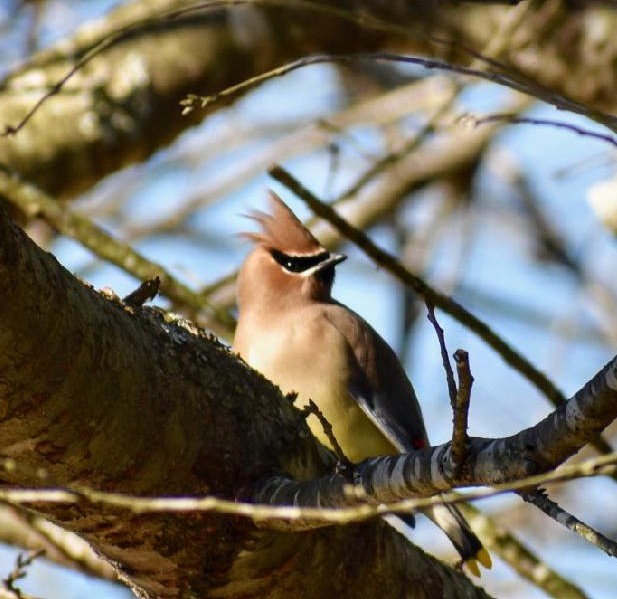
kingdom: Animalia
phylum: Chordata
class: Aves
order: Passeriformes
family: Bombycillidae
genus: Bombycilla
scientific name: Bombycilla cedrorum
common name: Cedar waxwing
